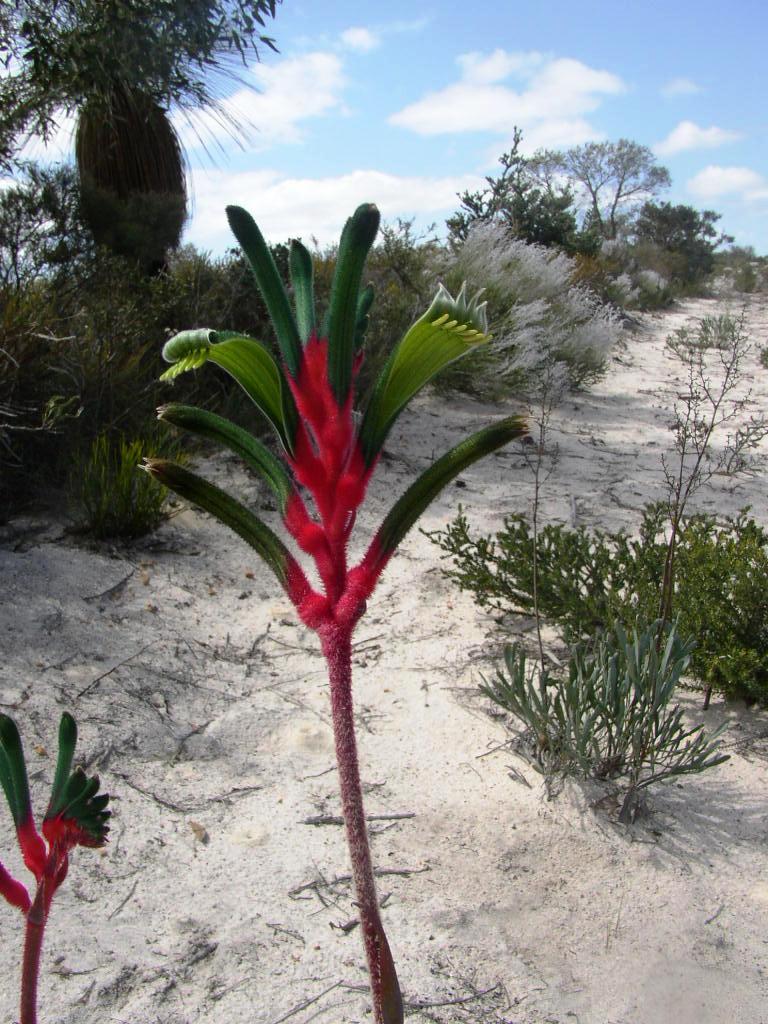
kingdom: Plantae
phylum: Tracheophyta
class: Liliopsida
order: Commelinales
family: Haemodoraceae
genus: Anigozanthos
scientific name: Anigozanthos manglesii
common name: Mangles's kangaroo-paw
